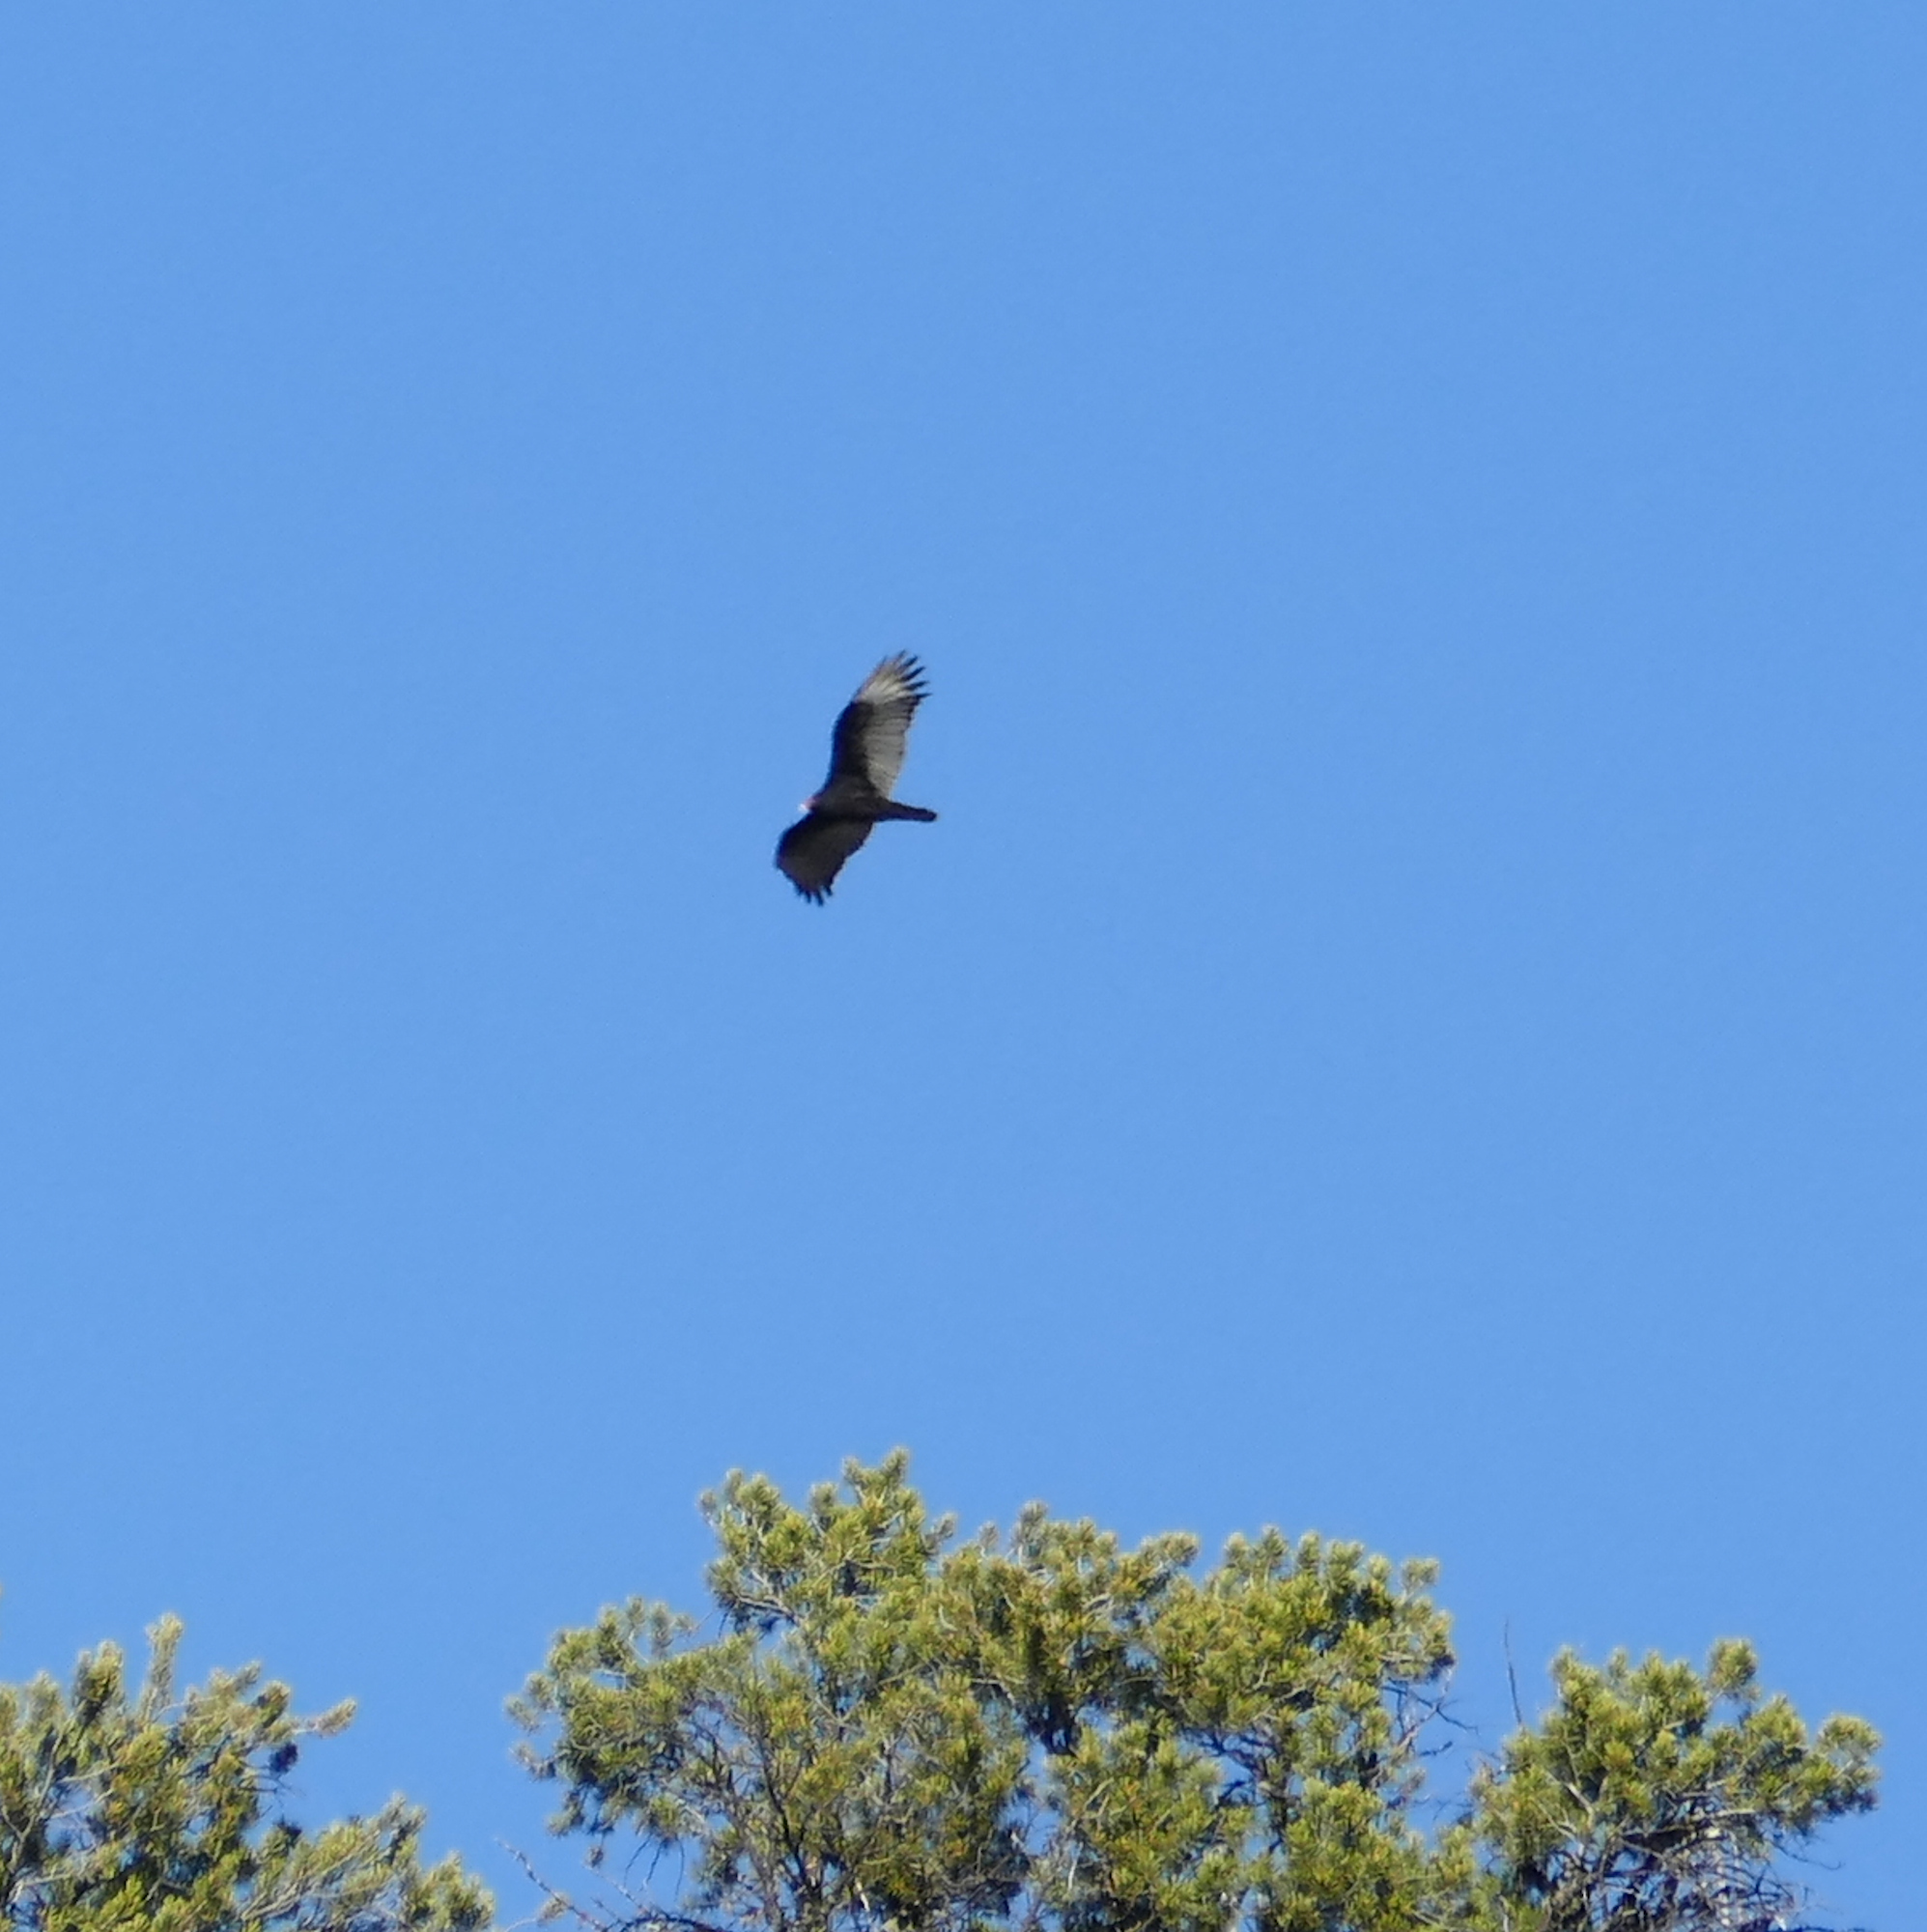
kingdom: Animalia
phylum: Chordata
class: Aves
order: Accipitriformes
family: Cathartidae
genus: Cathartes
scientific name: Cathartes aura
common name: Turkey vulture
